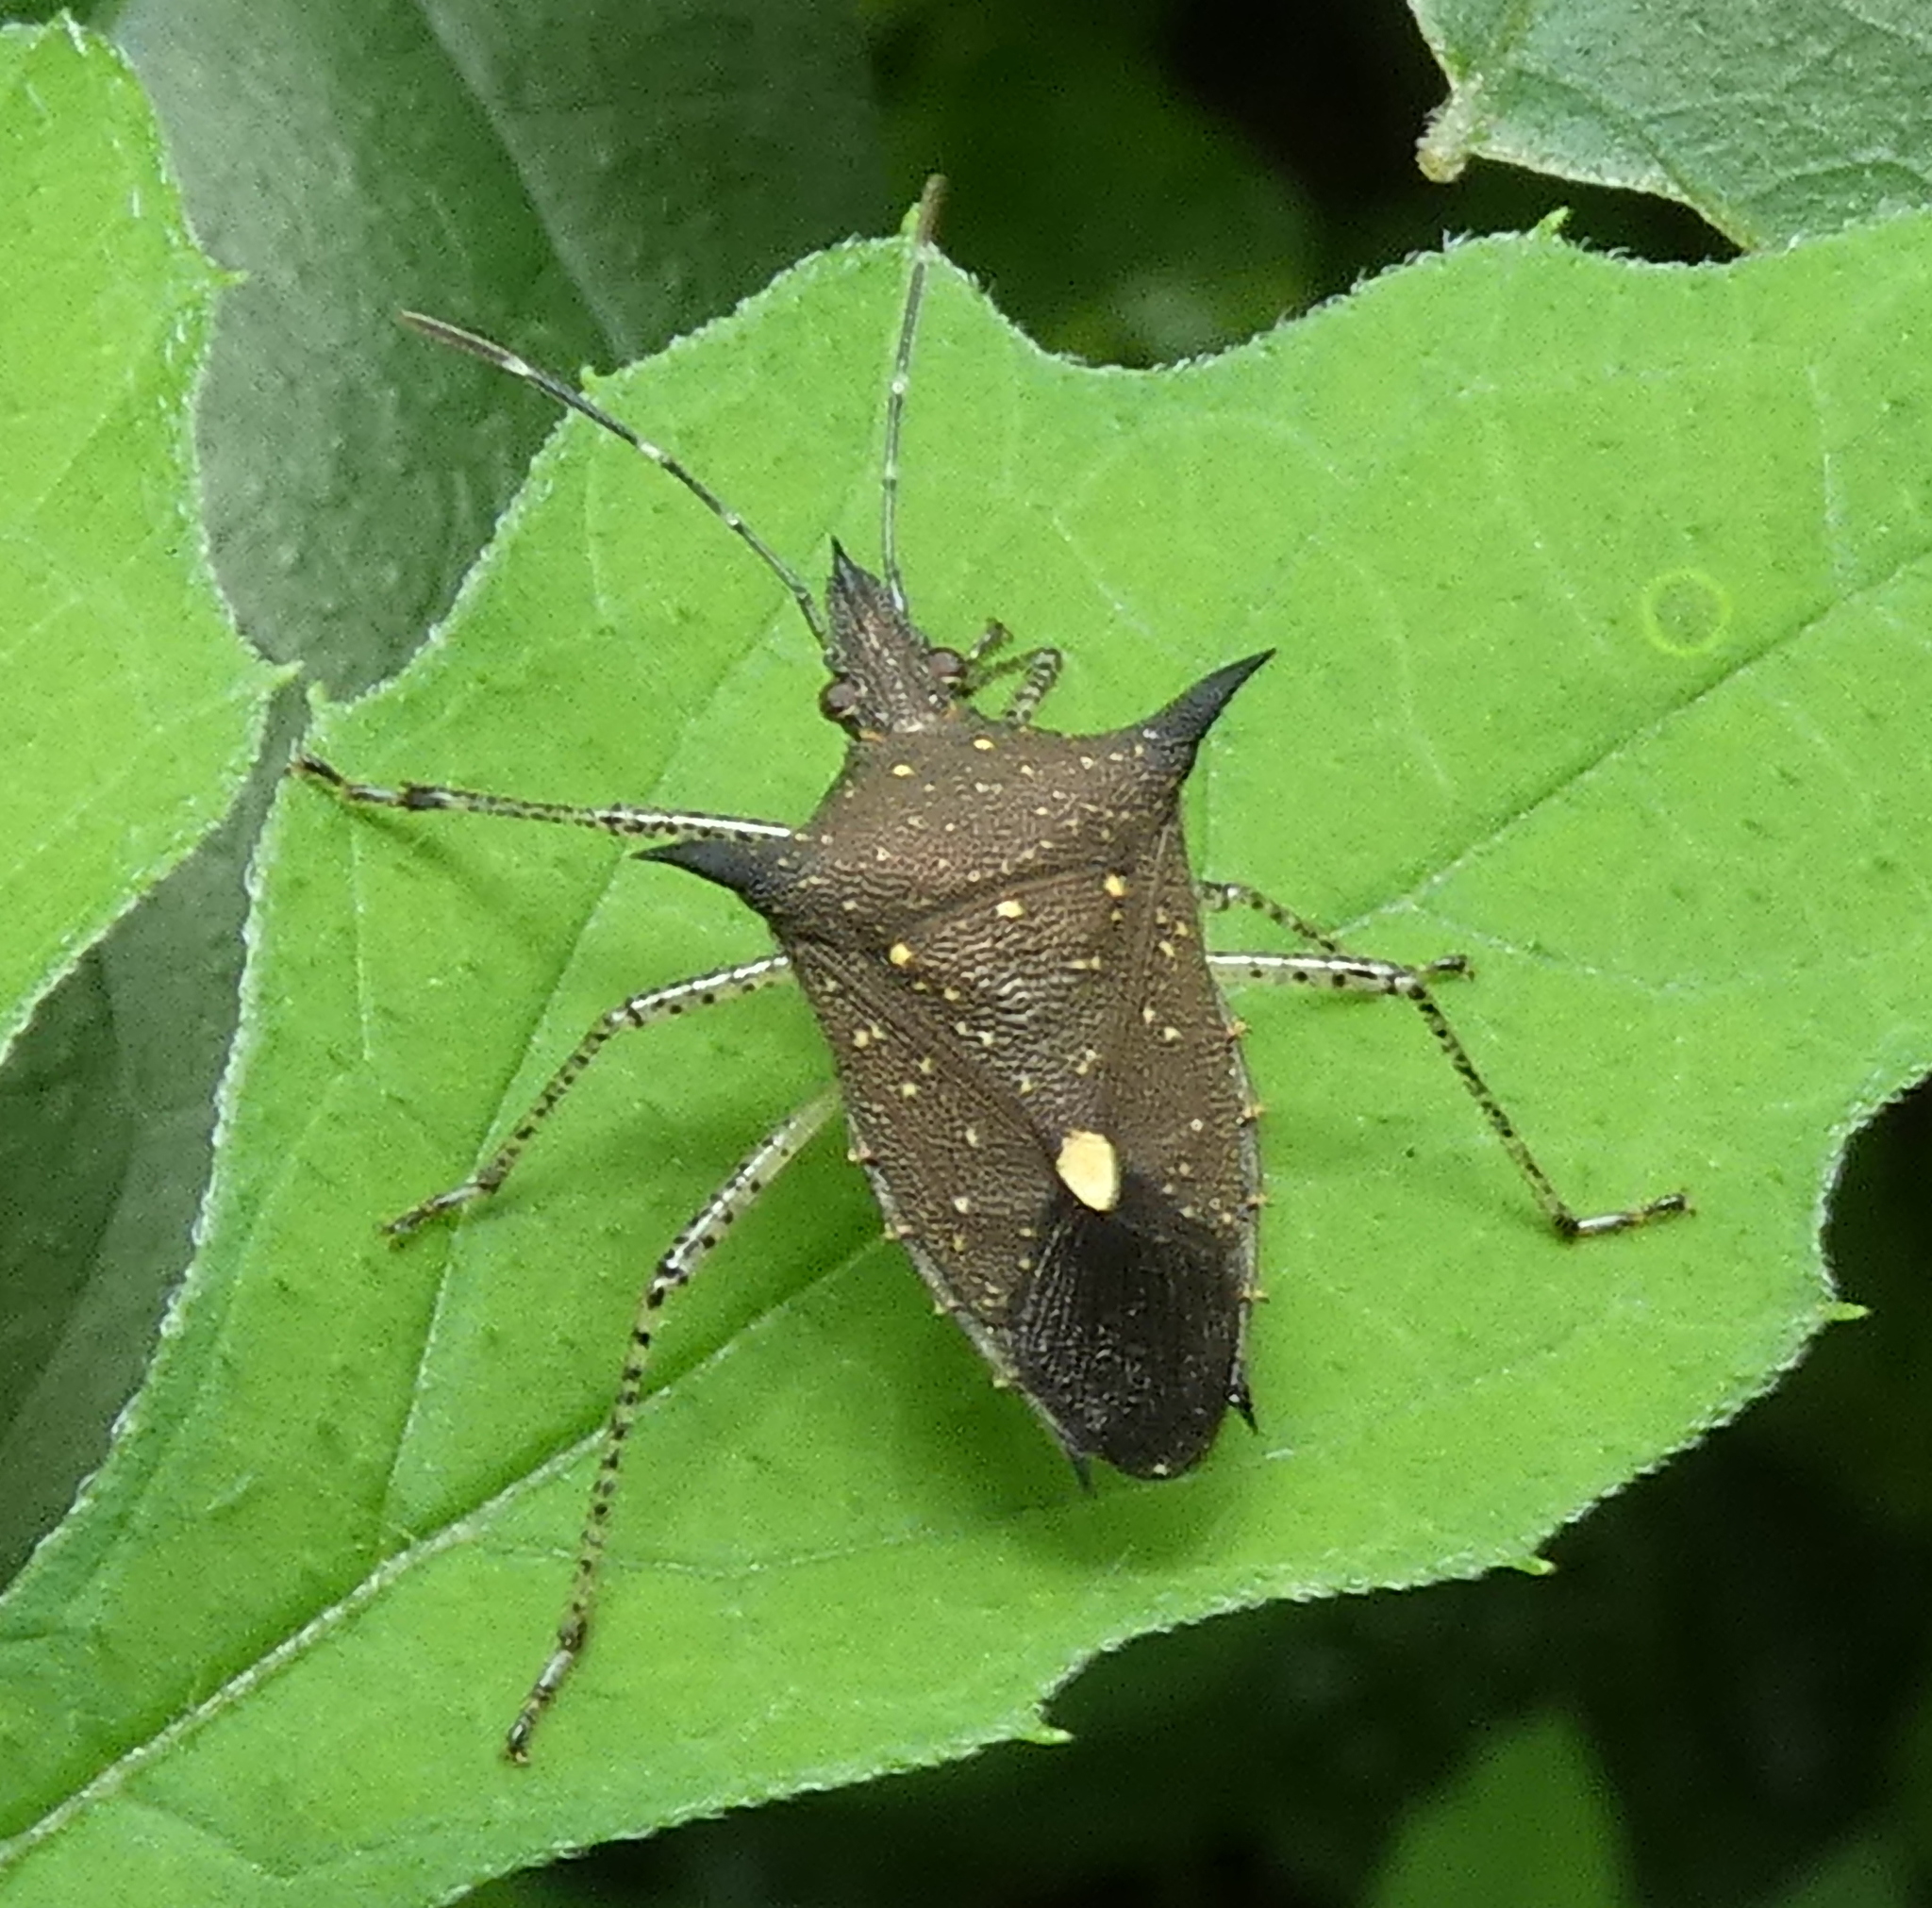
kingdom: Animalia
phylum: Arthropoda
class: Insecta
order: Hemiptera
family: Pentatomidae
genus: Proxys
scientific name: Proxys albopunctulatus
